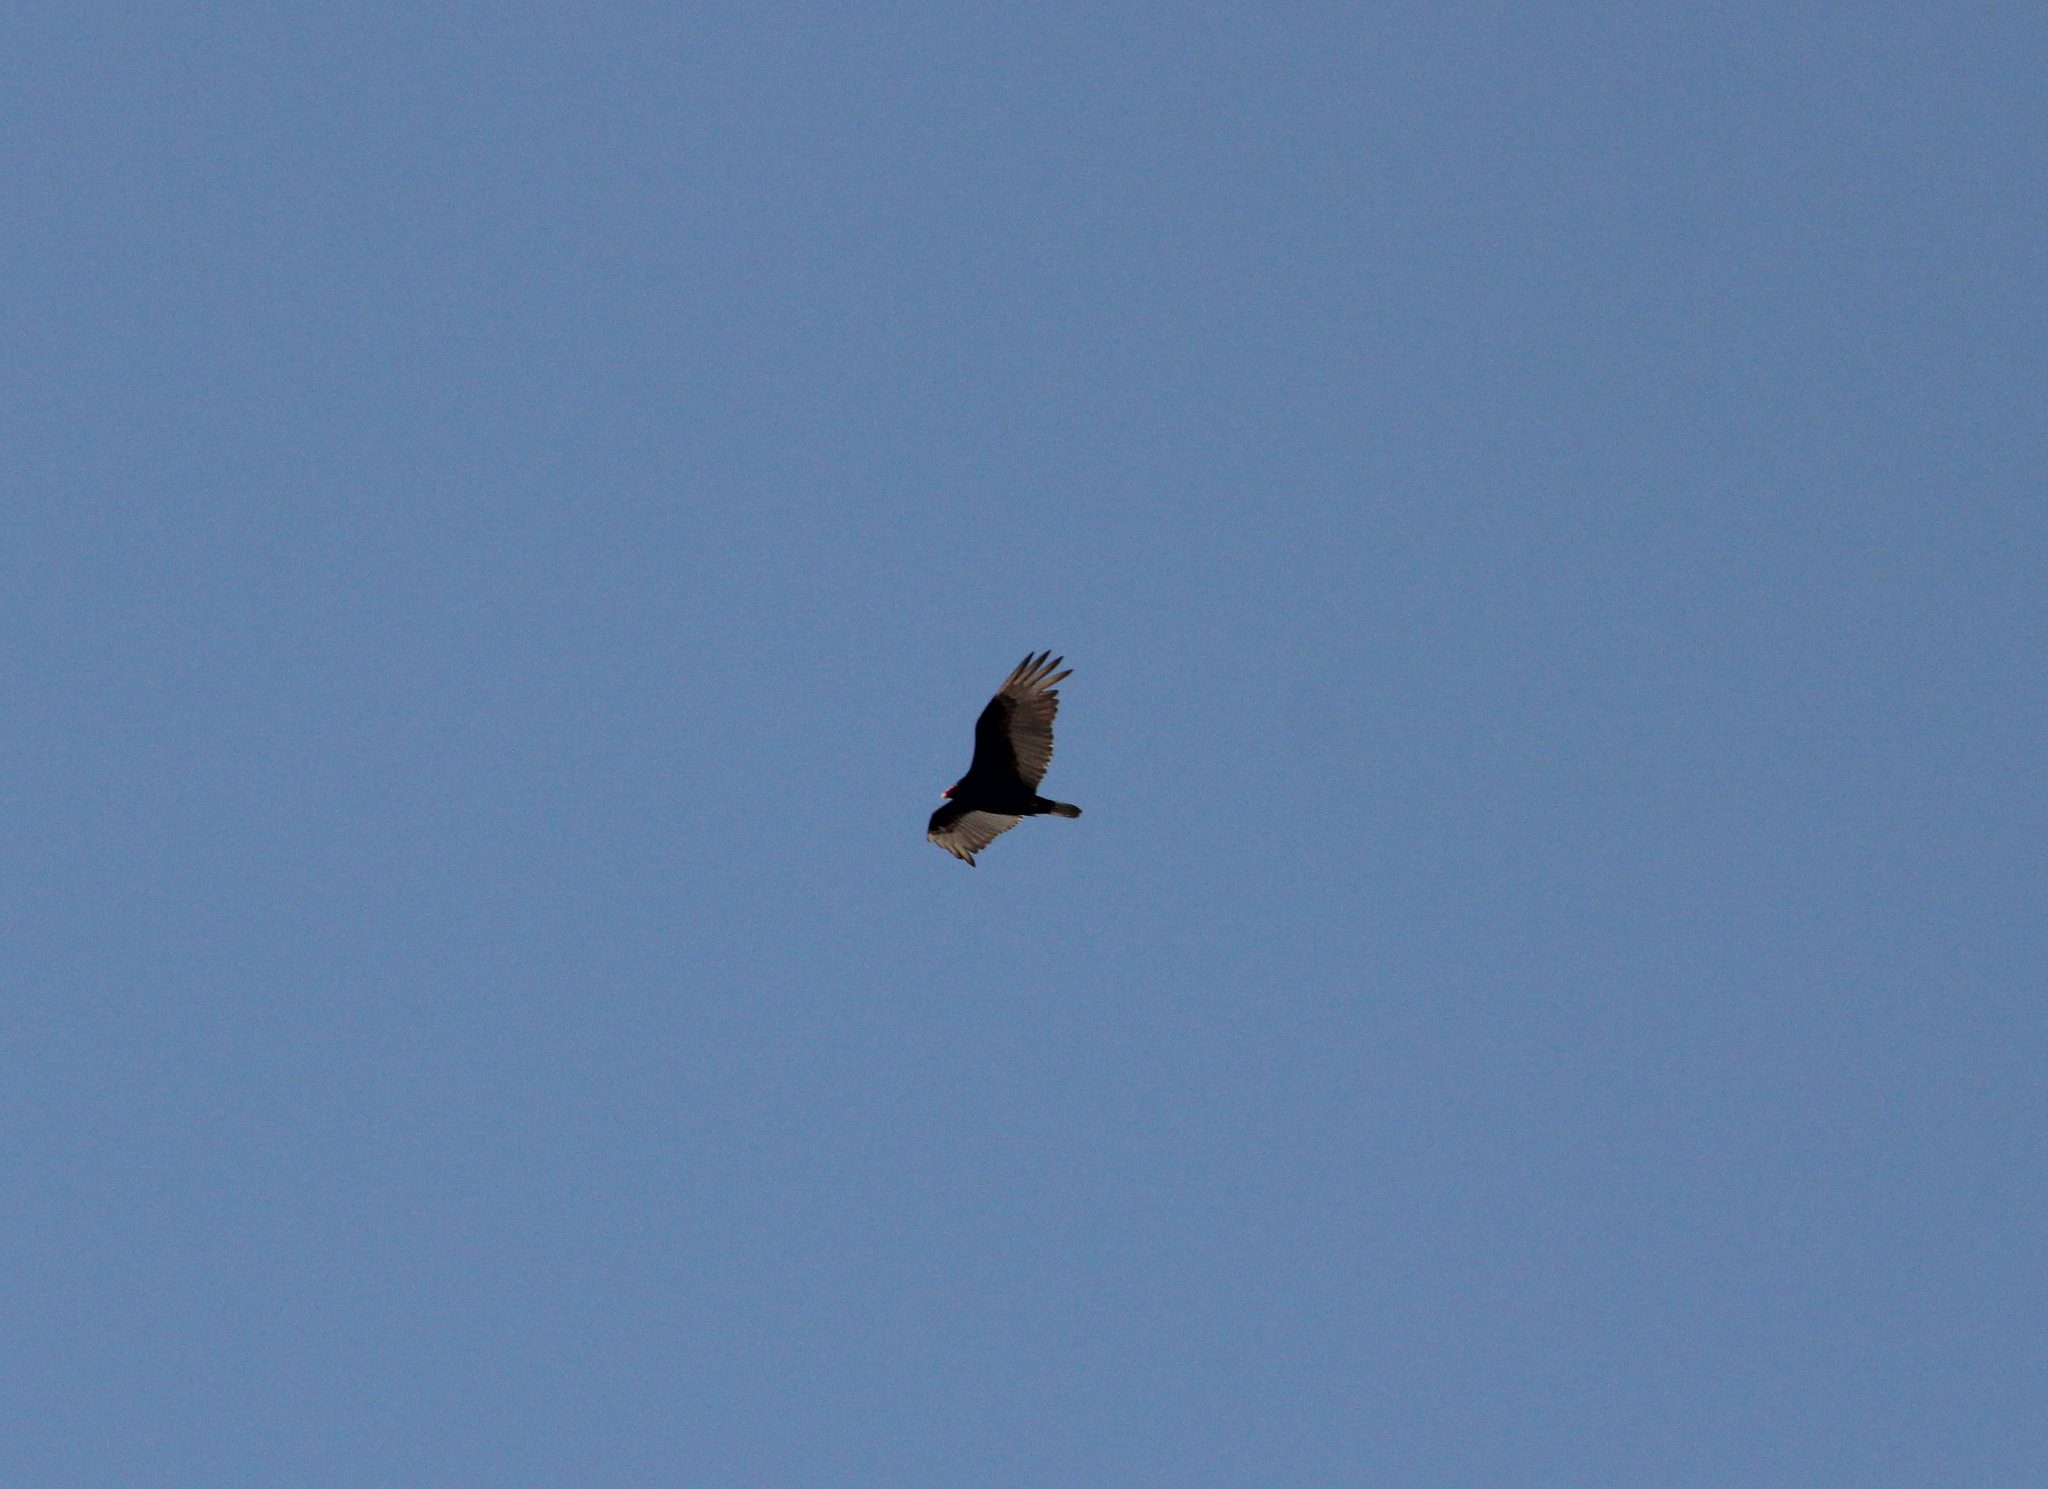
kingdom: Animalia
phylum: Chordata
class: Aves
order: Accipitriformes
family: Cathartidae
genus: Cathartes
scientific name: Cathartes aura
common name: Turkey vulture
